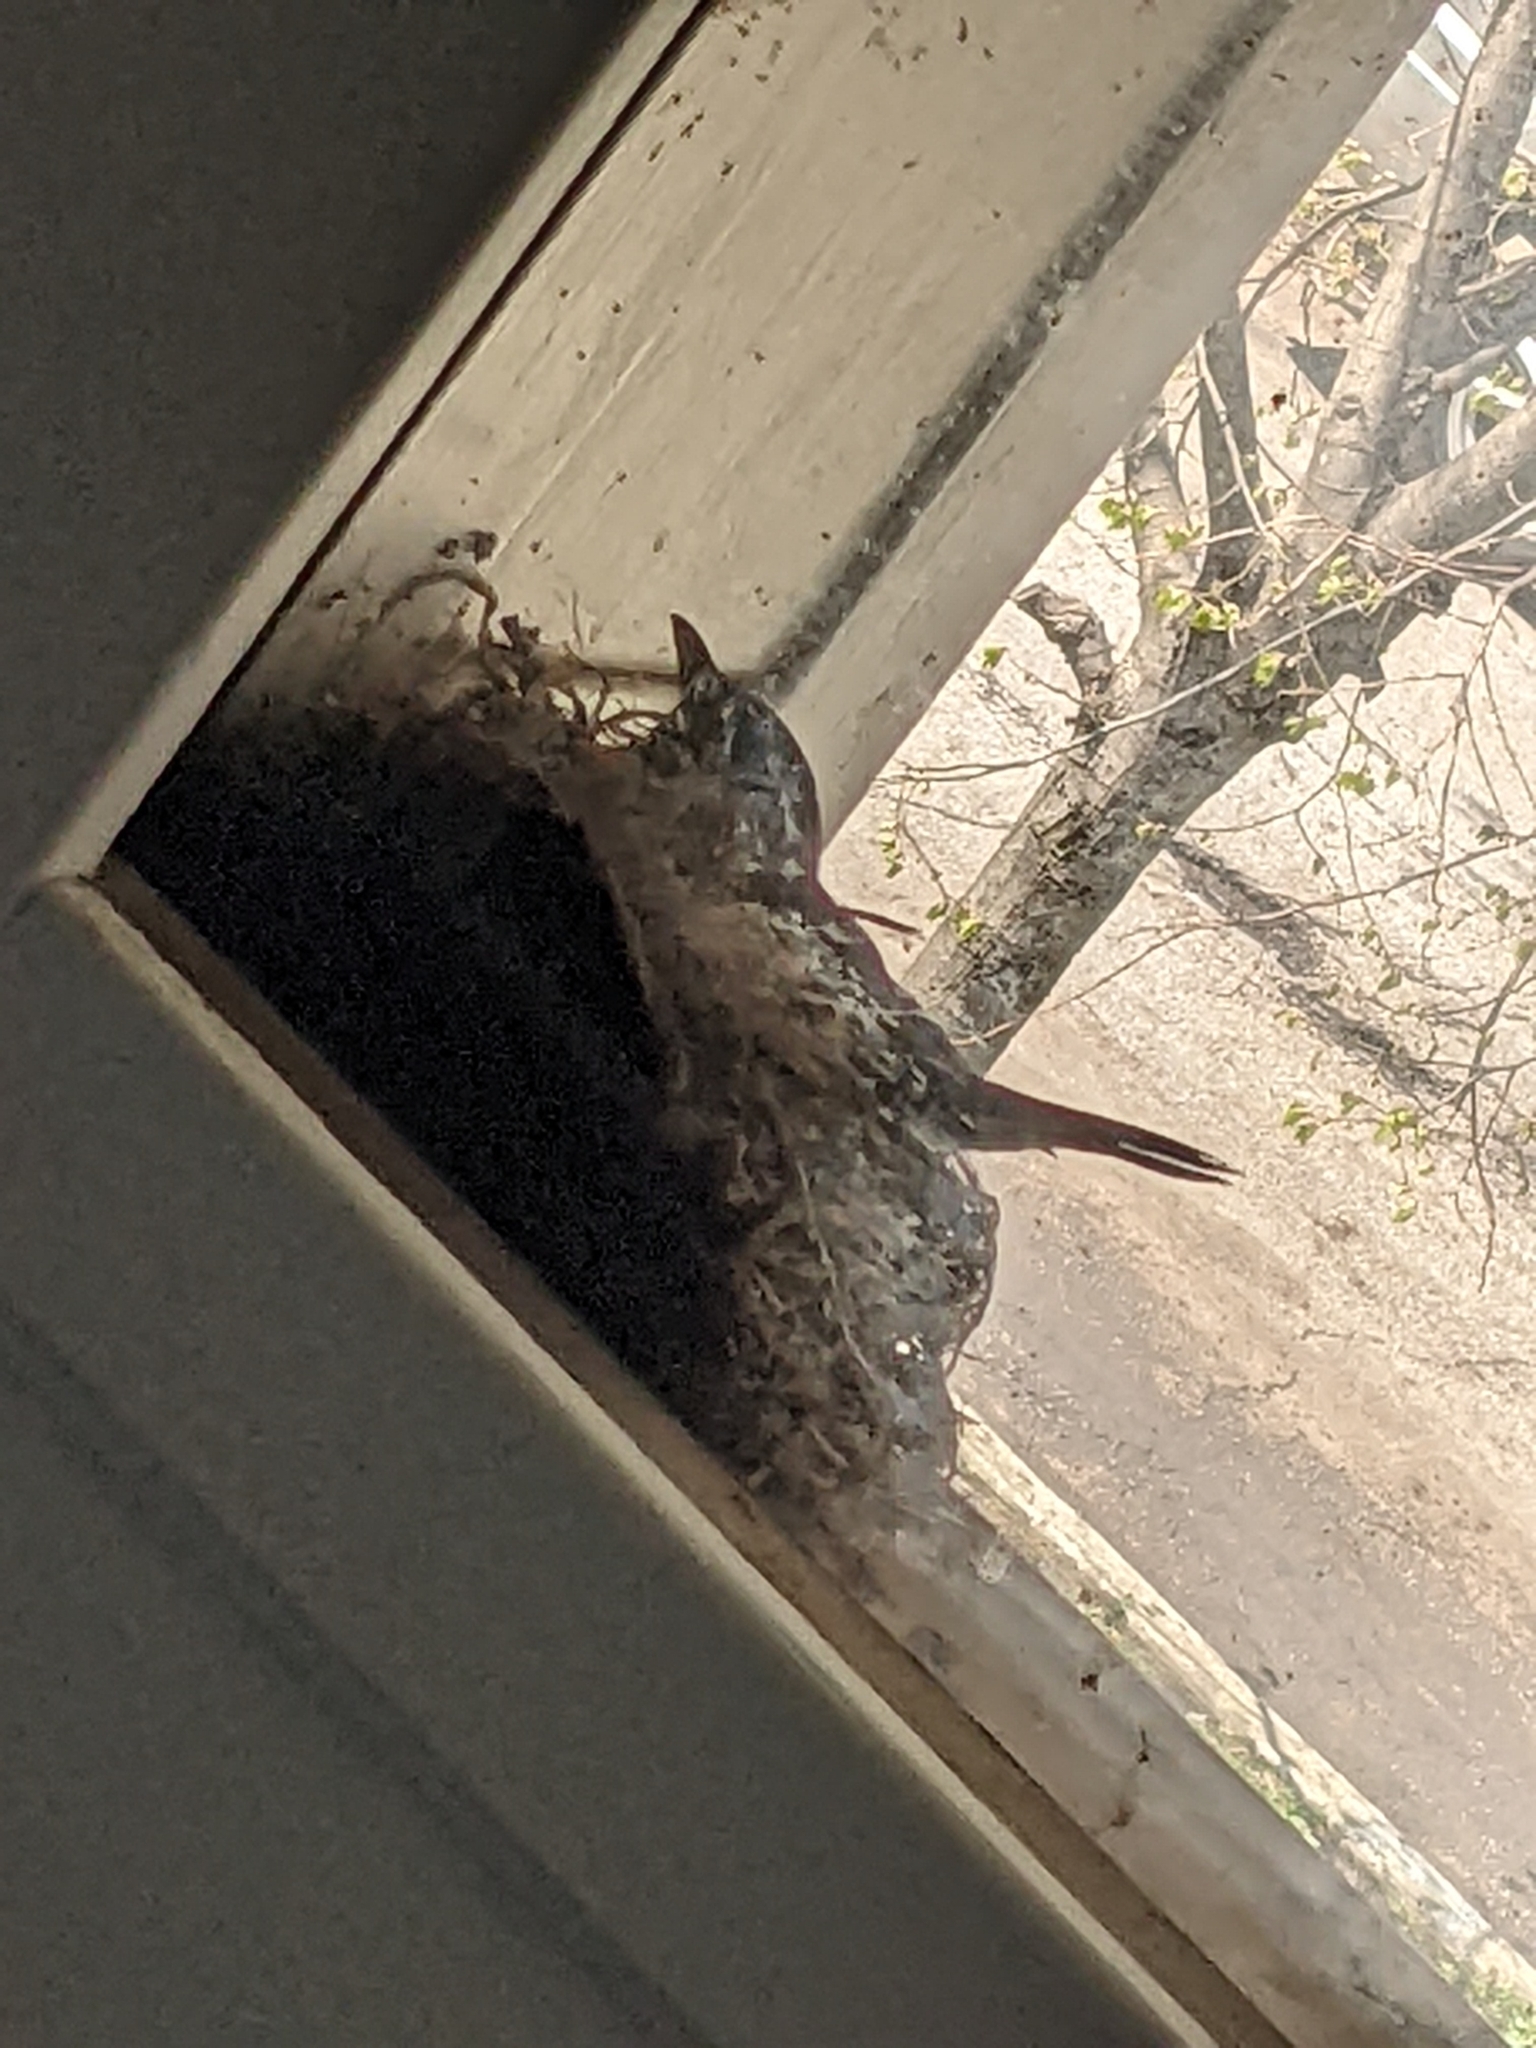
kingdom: Animalia
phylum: Chordata
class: Aves
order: Passeriformes
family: Turdidae
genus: Turdus
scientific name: Turdus migratorius
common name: American robin
